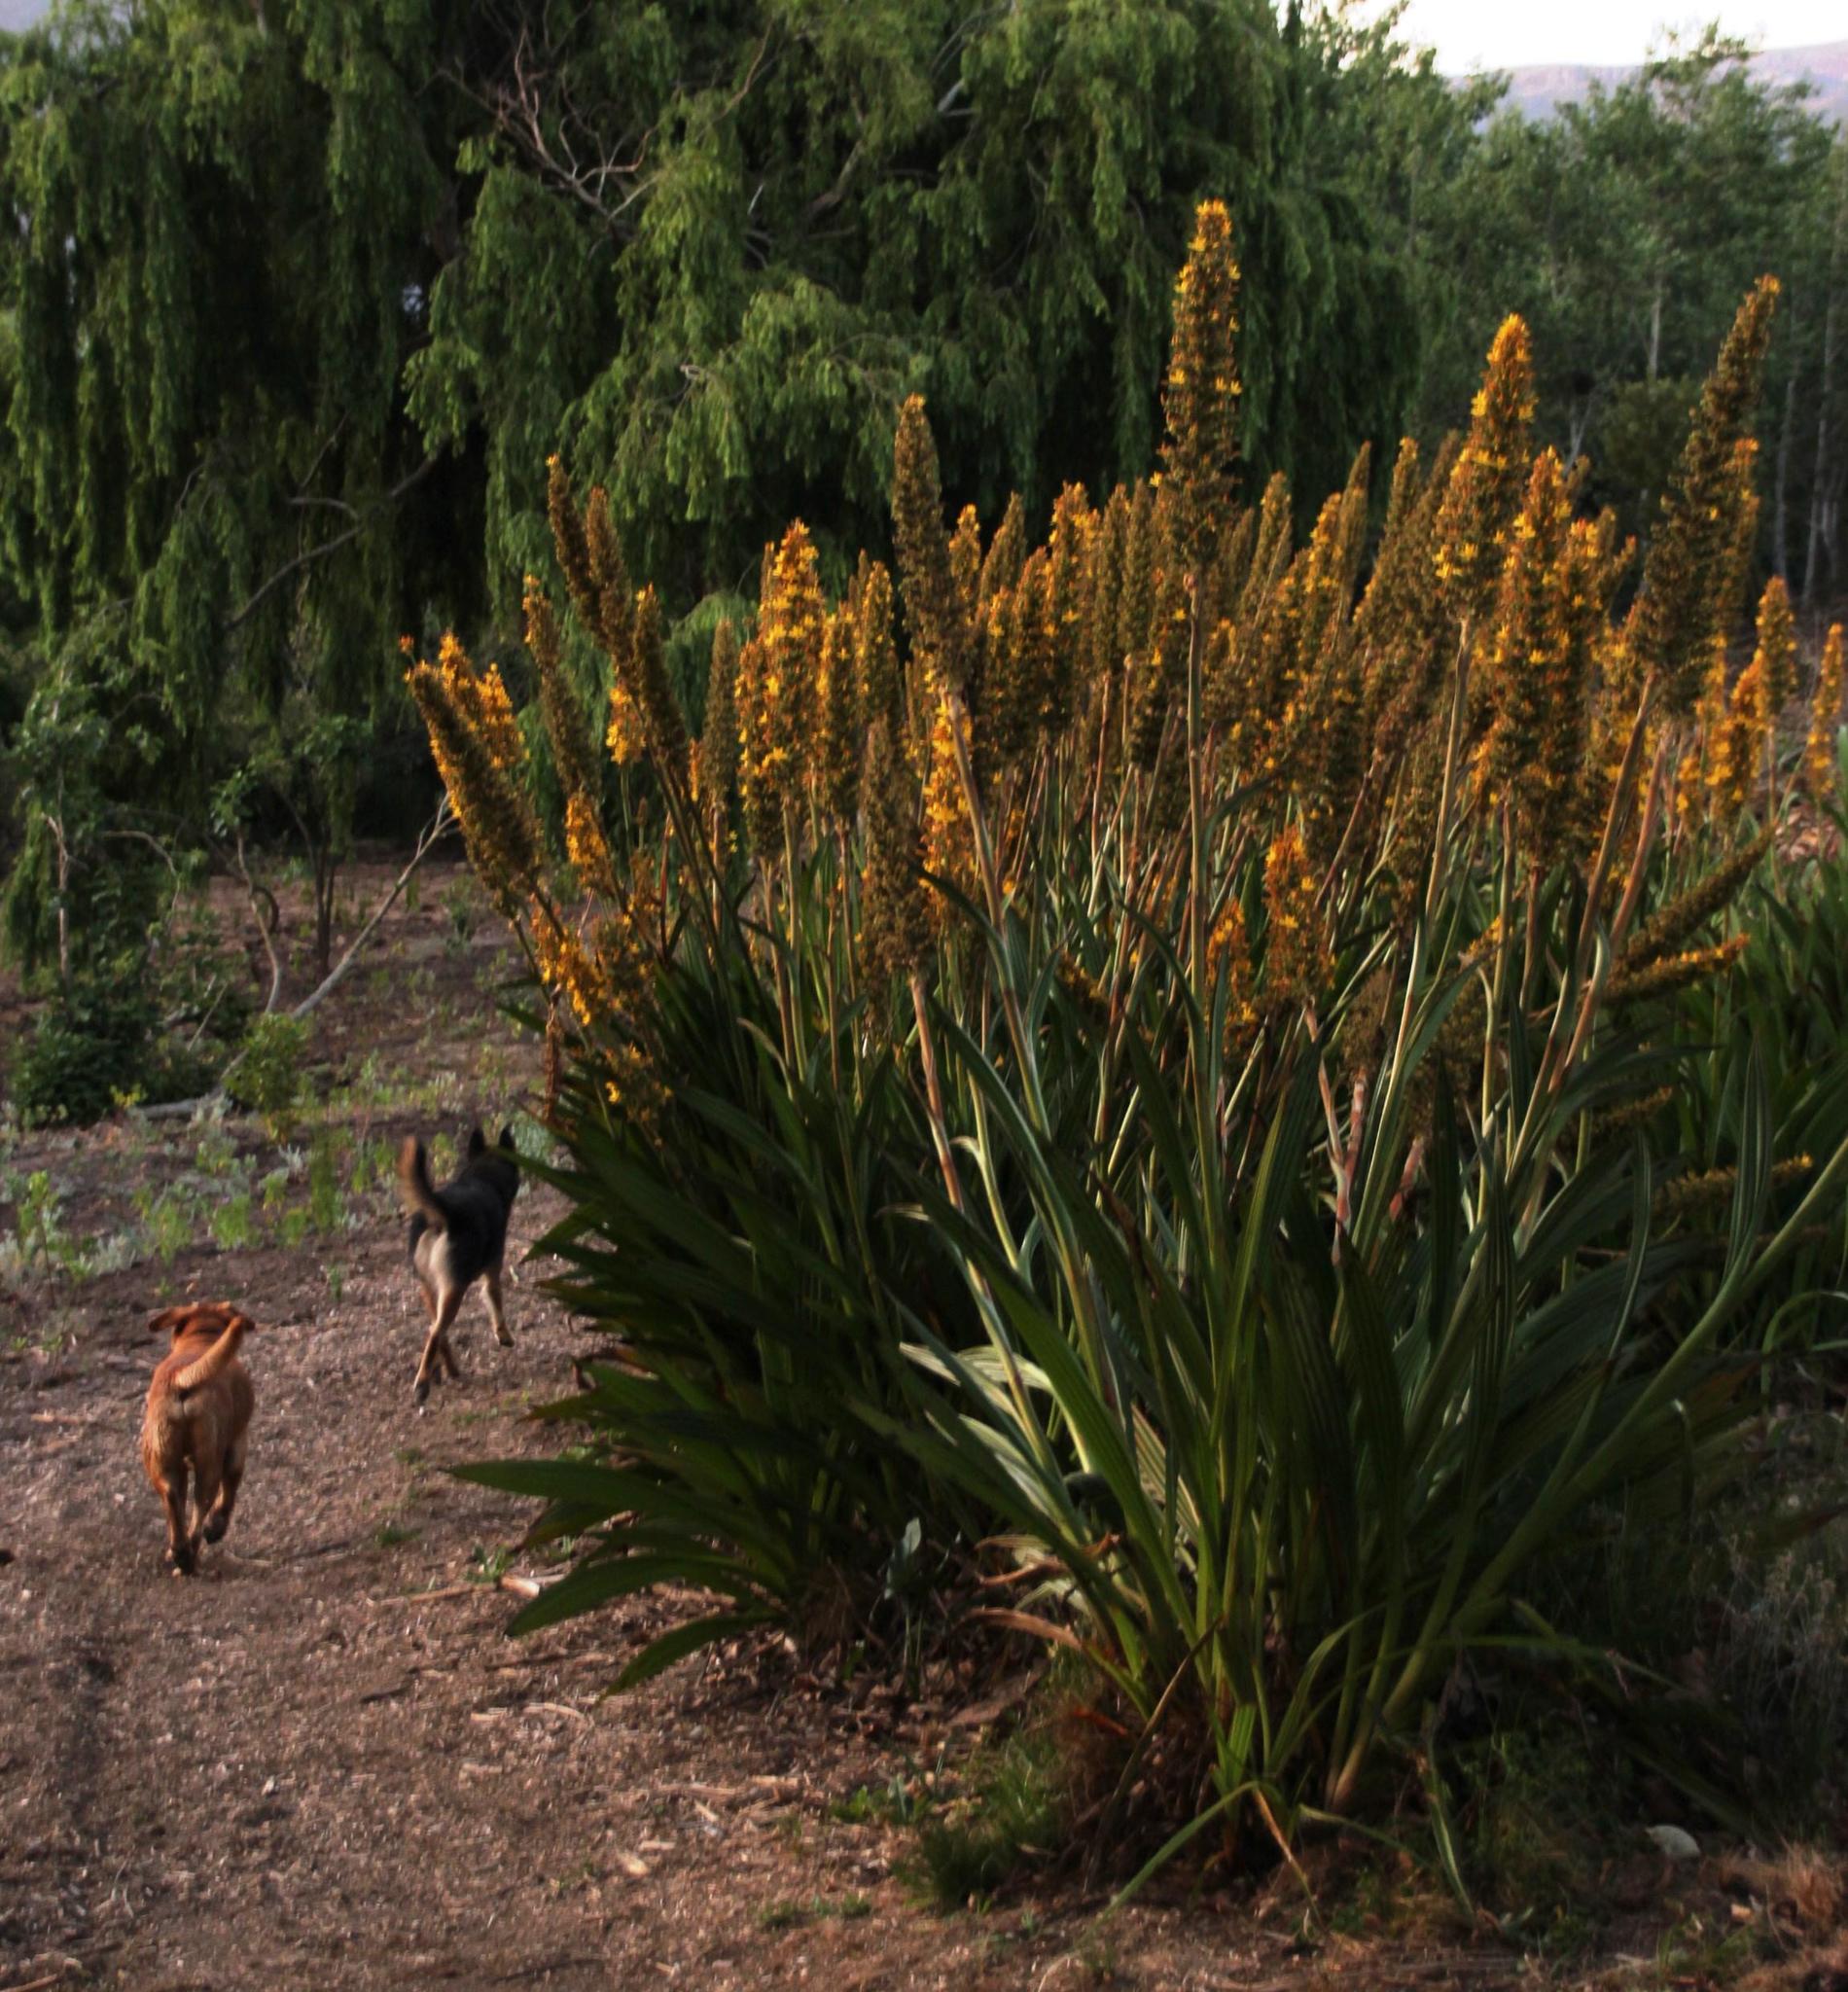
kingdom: Plantae
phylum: Tracheophyta
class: Liliopsida
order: Commelinales
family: Haemodoraceae
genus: Wachendorfia
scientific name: Wachendorfia thyrsiflora
